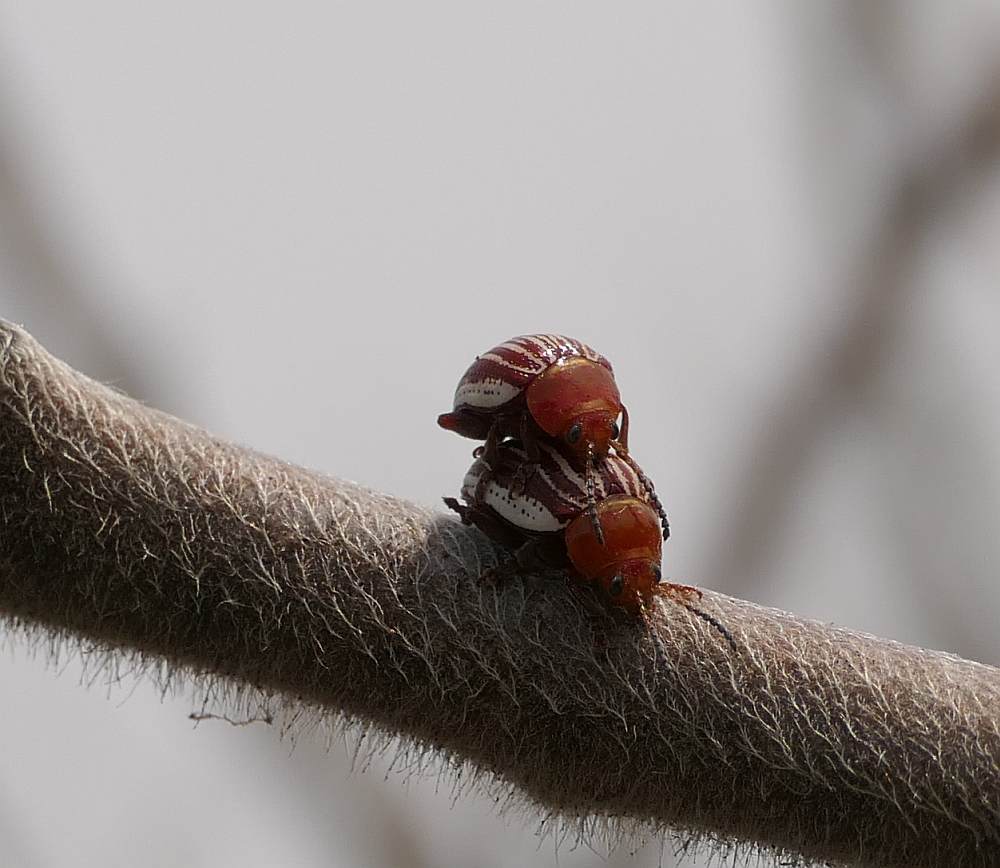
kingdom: Animalia
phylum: Arthropoda
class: Insecta
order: Coleoptera
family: Chrysomelidae
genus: Blepharida
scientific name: Blepharida rhois
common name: Sumac flea beetle
